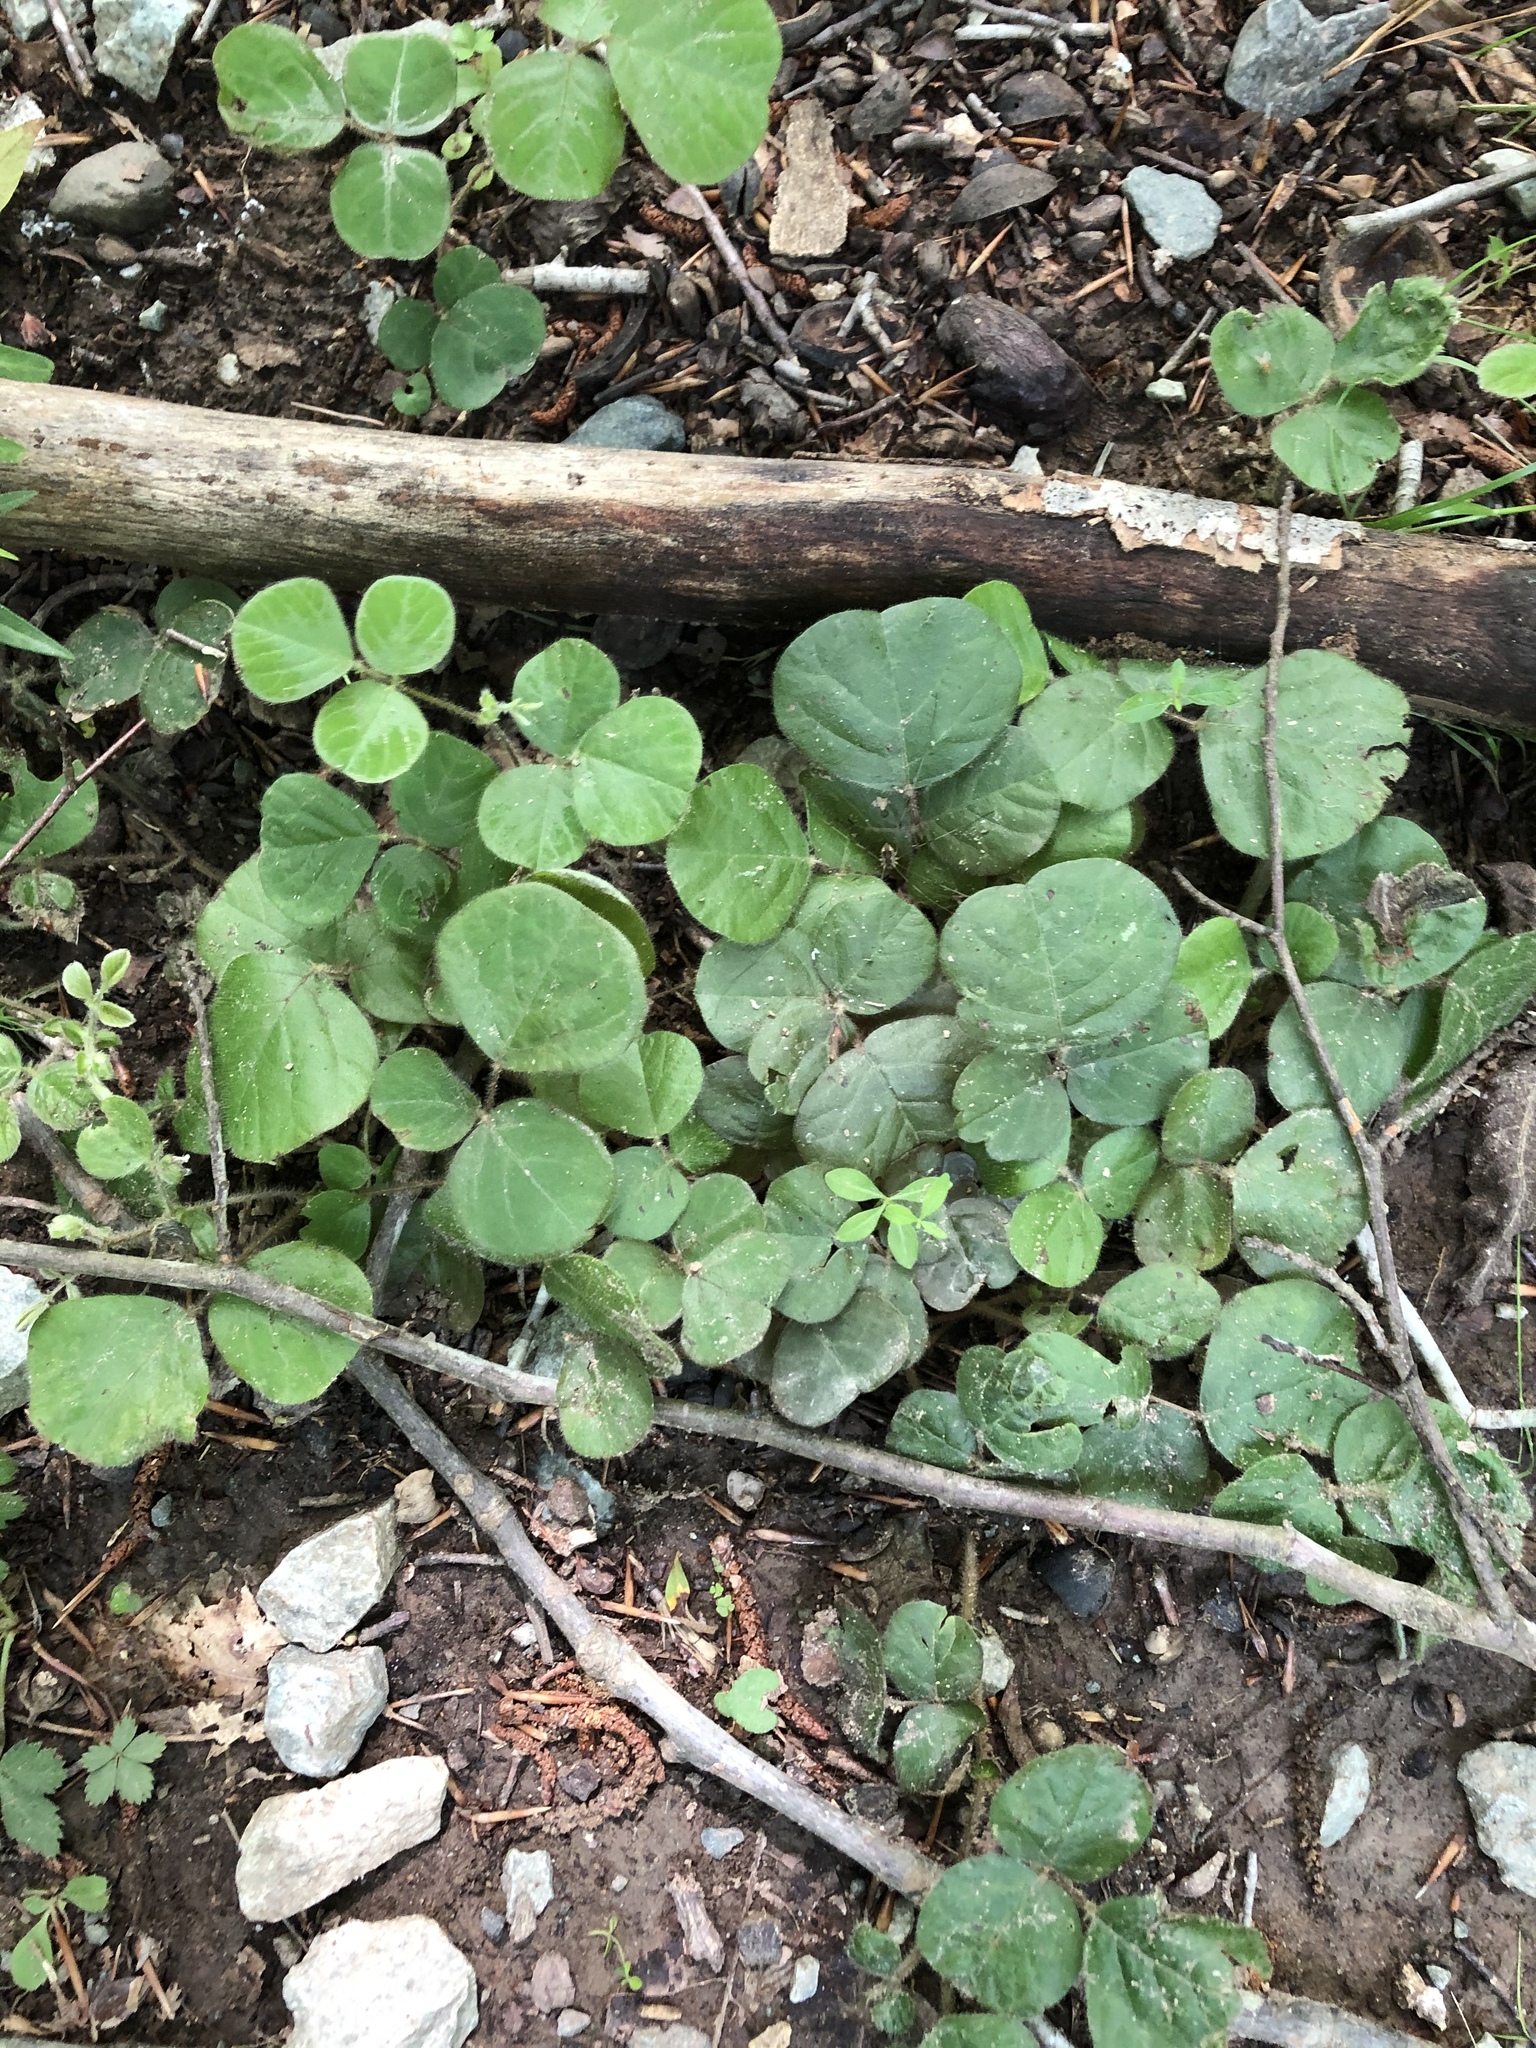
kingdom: Plantae
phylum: Tracheophyta
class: Magnoliopsida
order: Fabales
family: Fabaceae
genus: Desmodium
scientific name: Desmodium rotundifolium
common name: Dollarleaf
